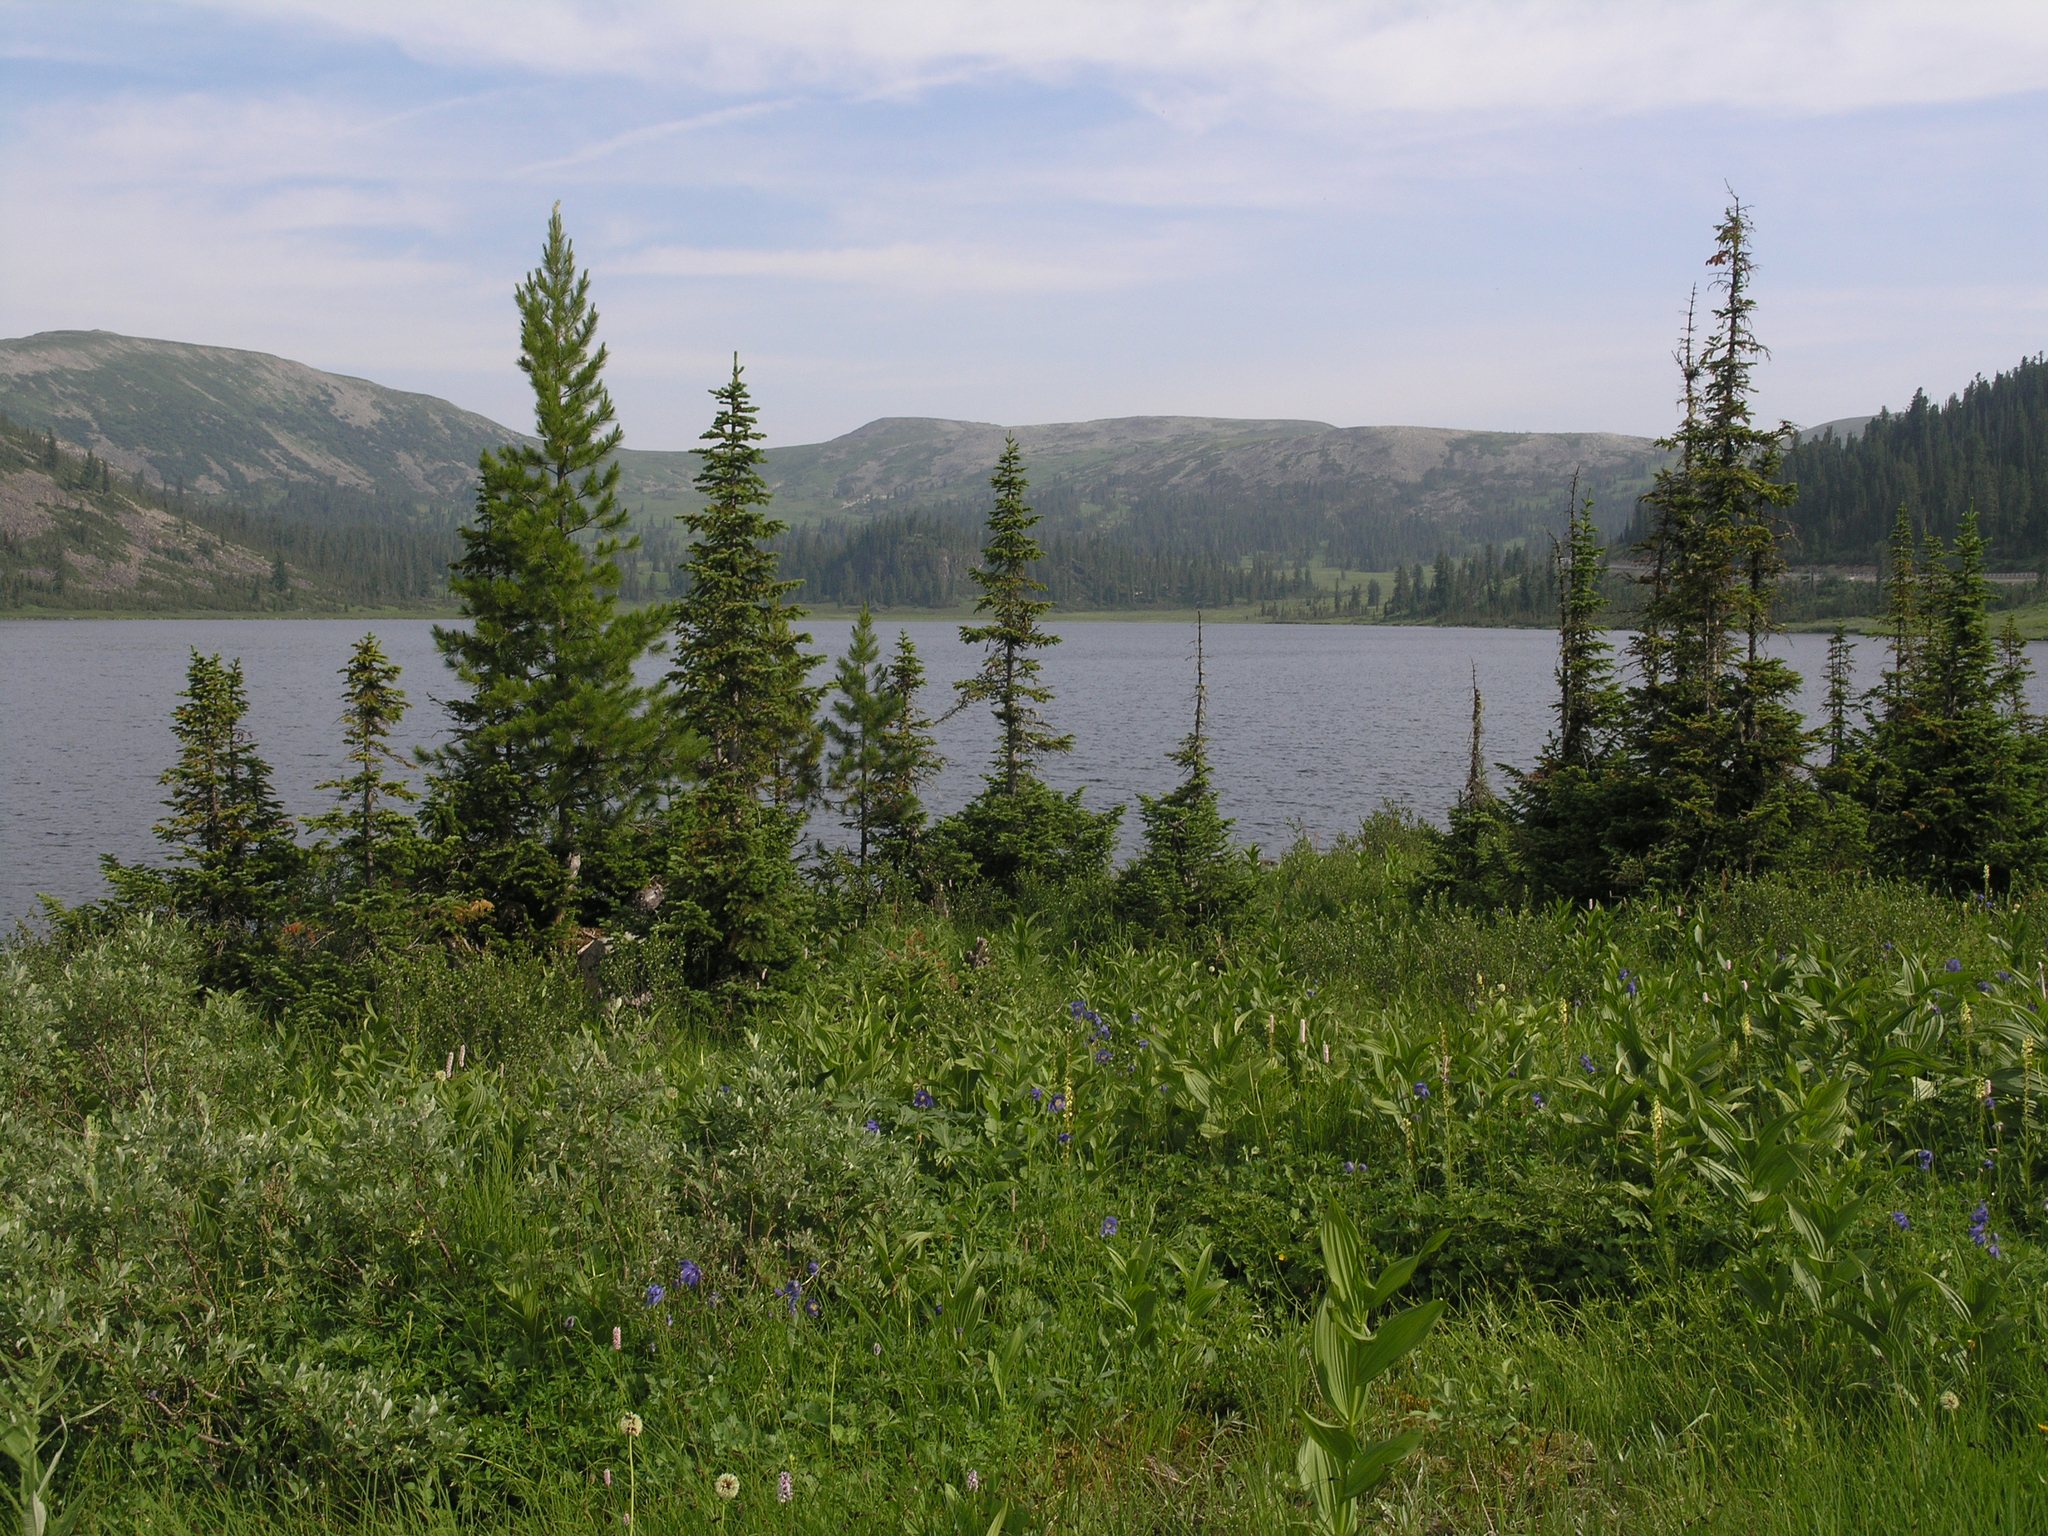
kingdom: Plantae
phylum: Tracheophyta
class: Pinopsida
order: Pinales
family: Pinaceae
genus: Abies
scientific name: Abies sibirica
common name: Siberian fir
